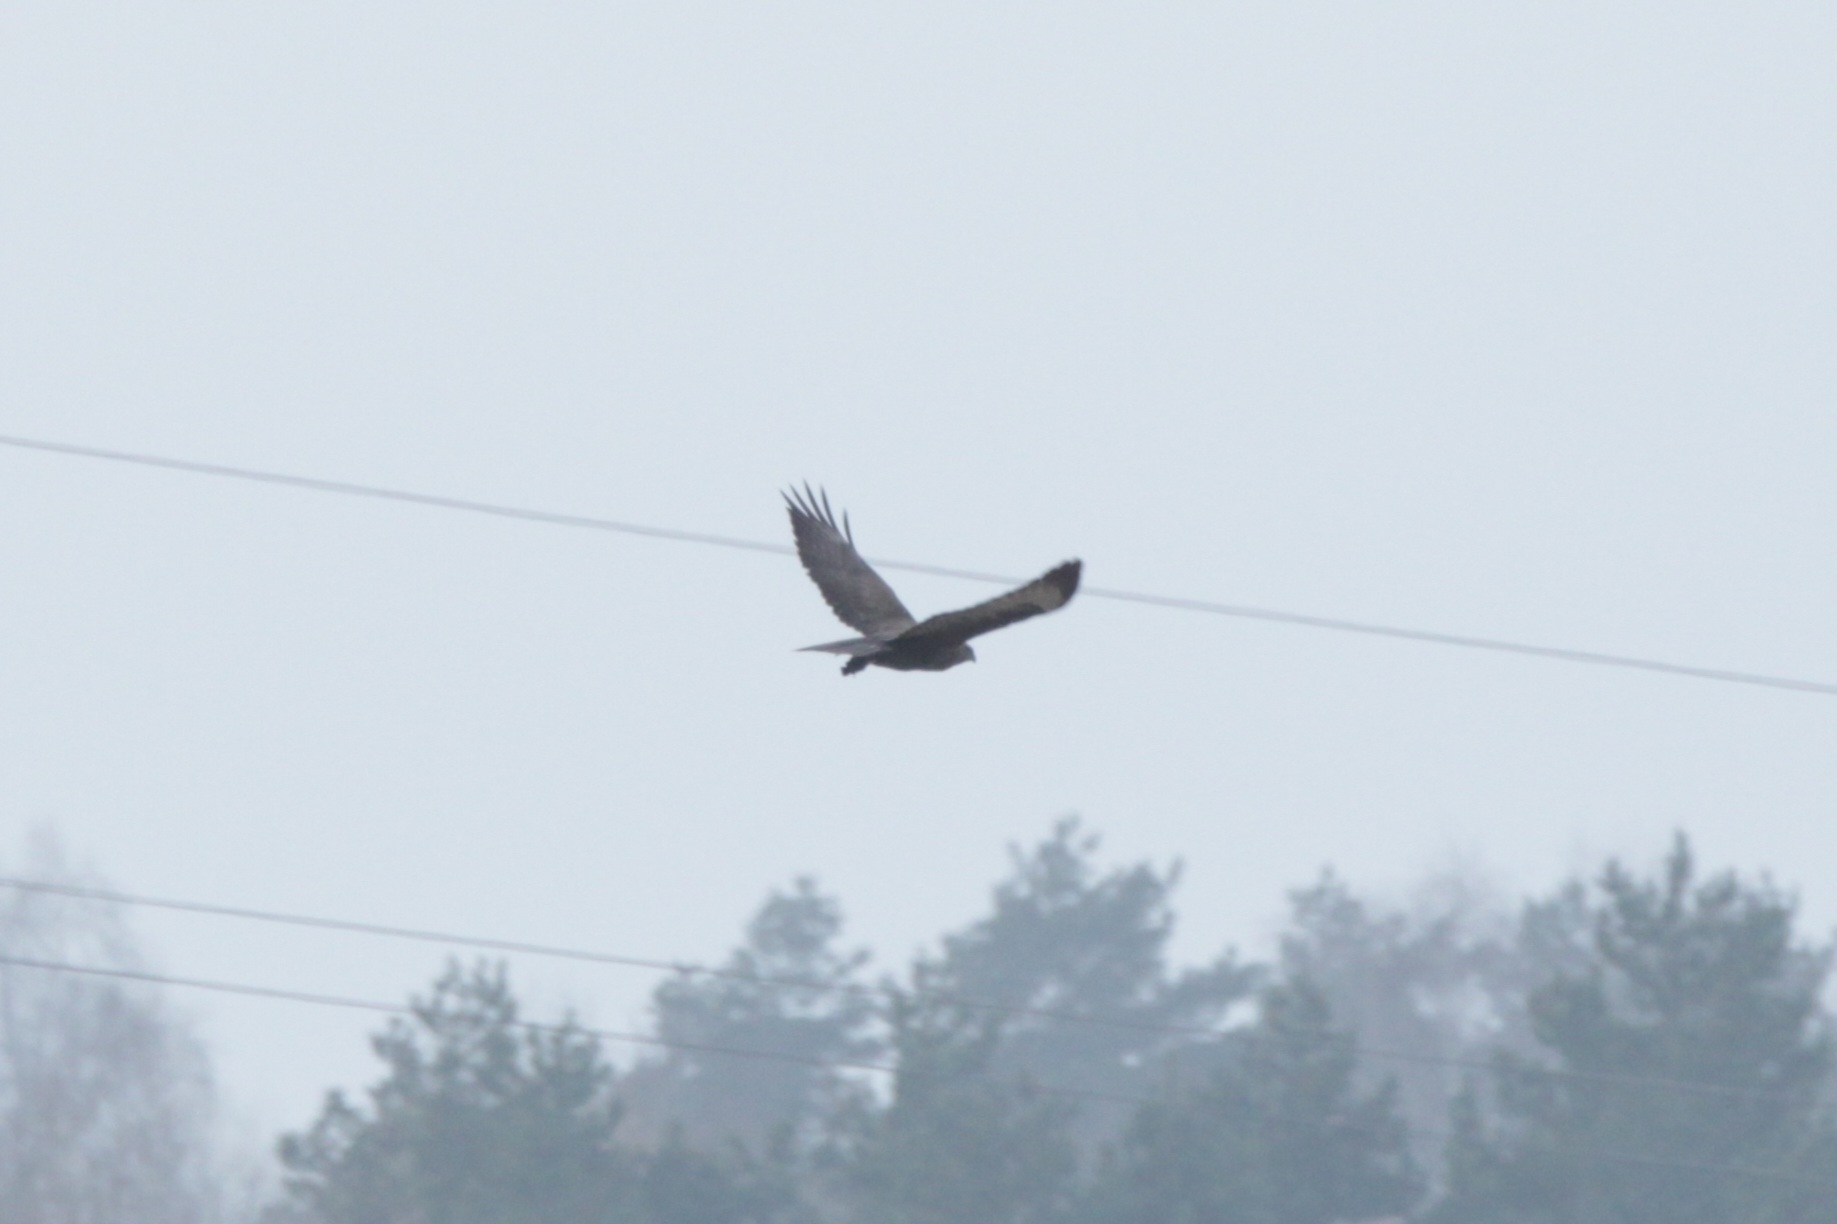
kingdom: Animalia
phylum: Chordata
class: Aves
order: Accipitriformes
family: Accipitridae
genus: Buteo
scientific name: Buteo buteo
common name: Common buzzard
